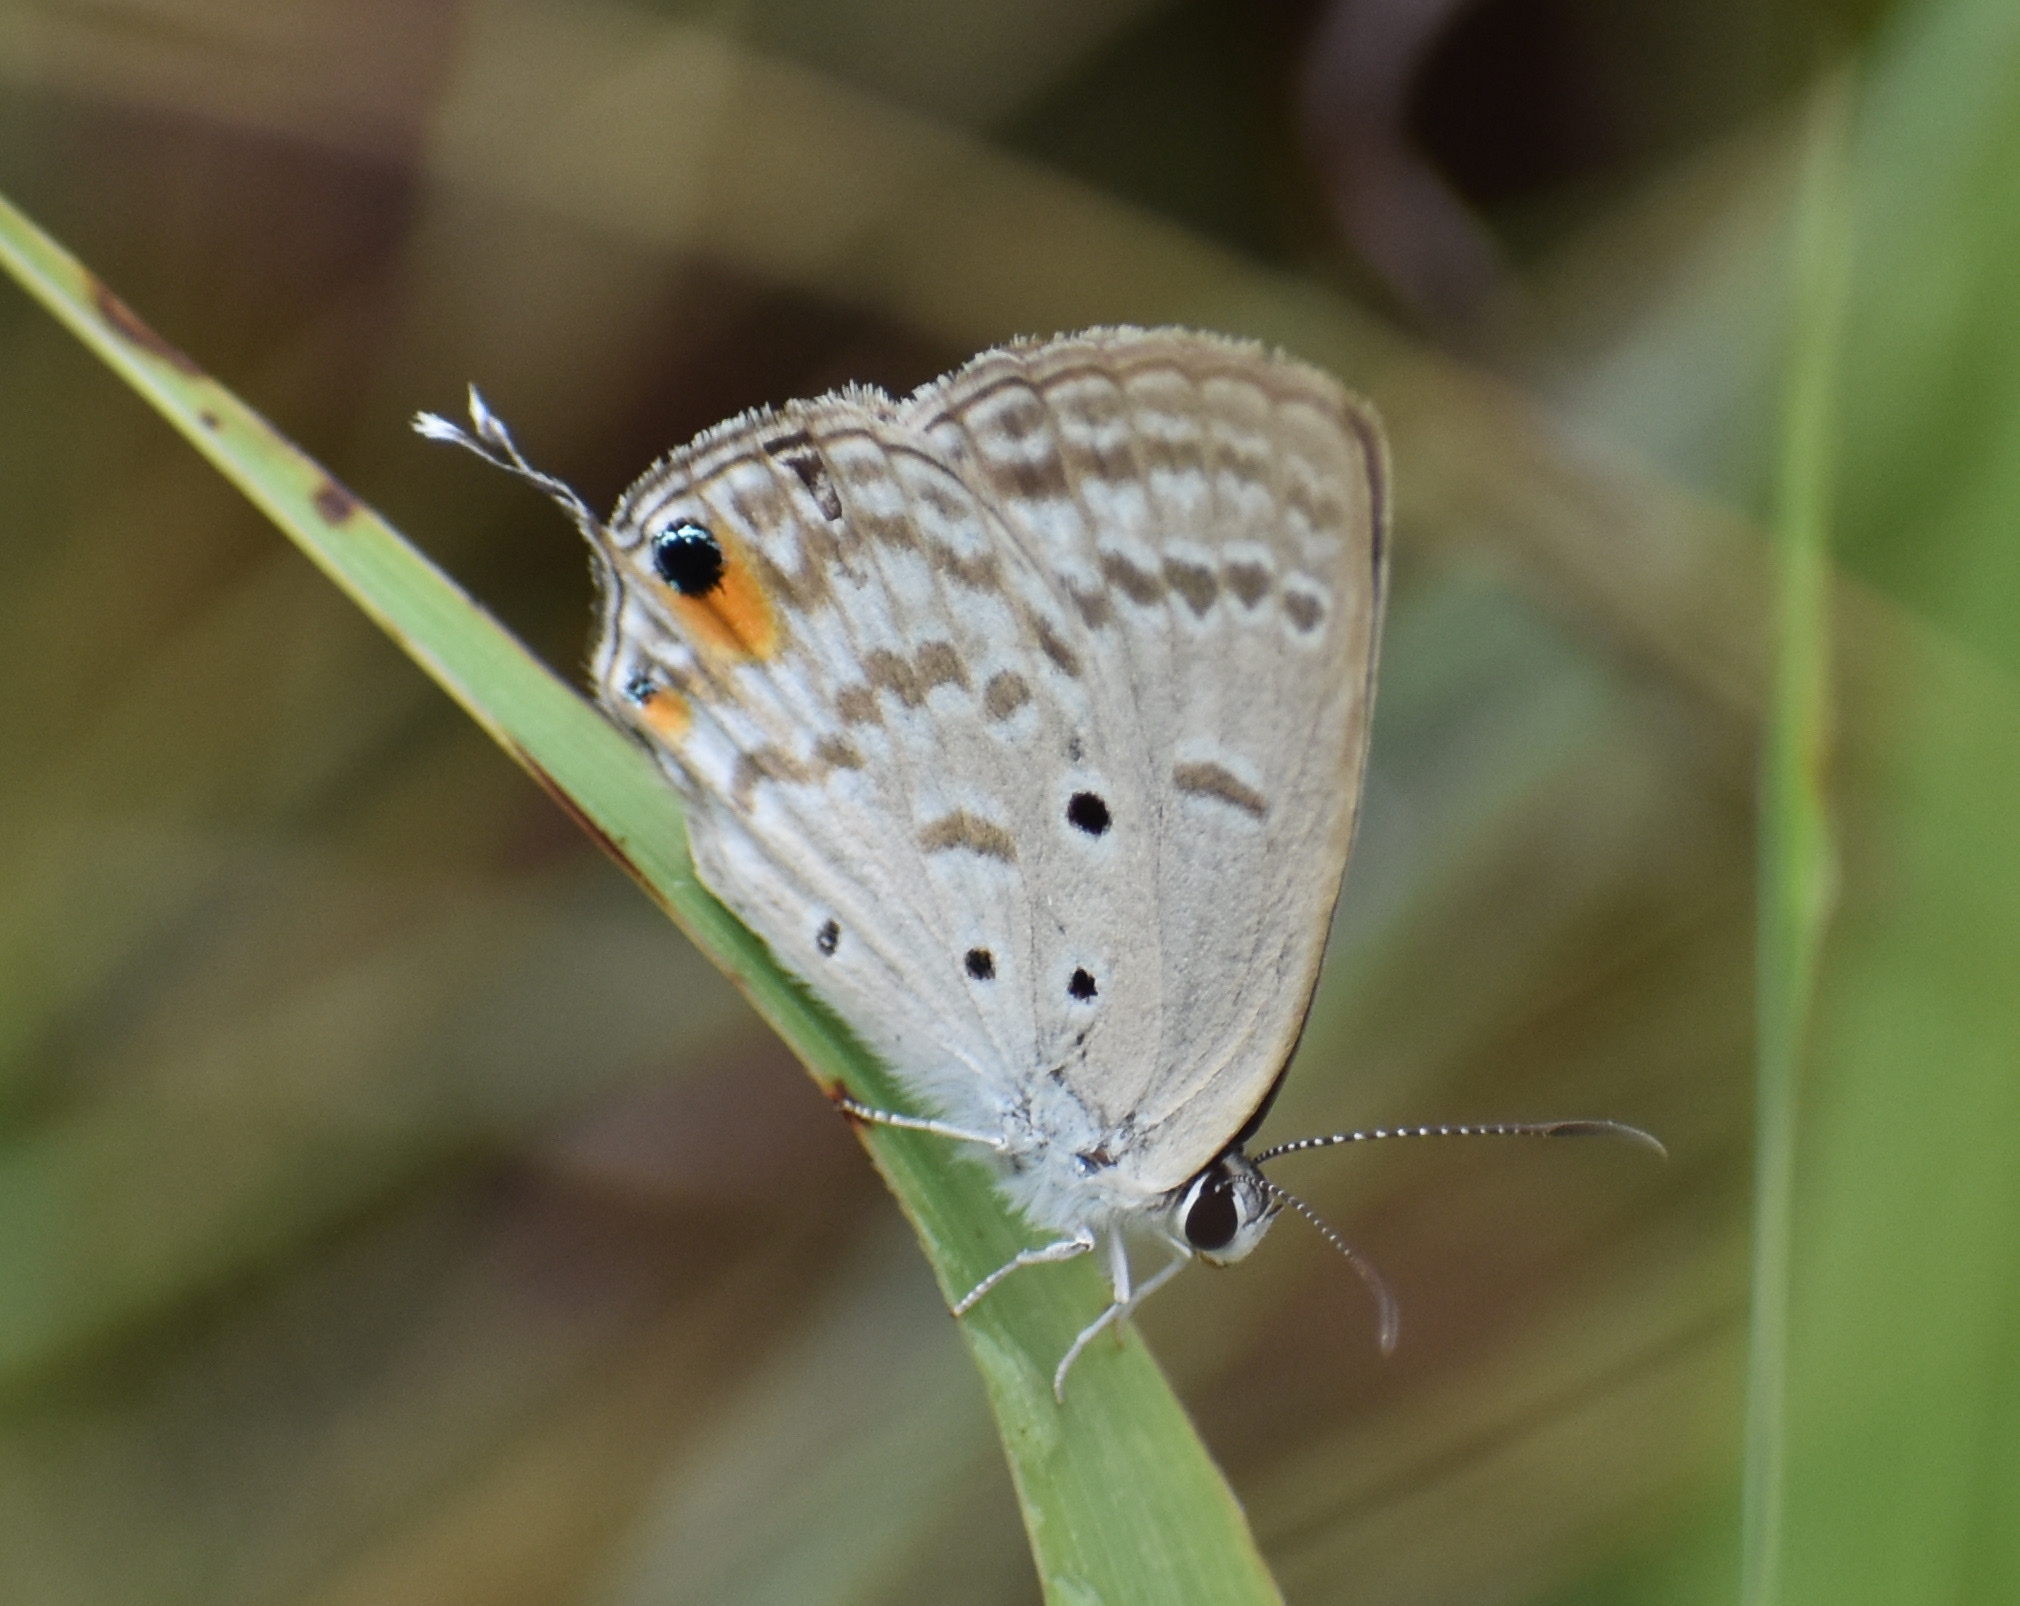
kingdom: Animalia
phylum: Arthropoda
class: Insecta
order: Lepidoptera
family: Lycaenidae
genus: Euchrysops
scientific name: Euchrysops barkeri
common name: Barker's smoky blue
